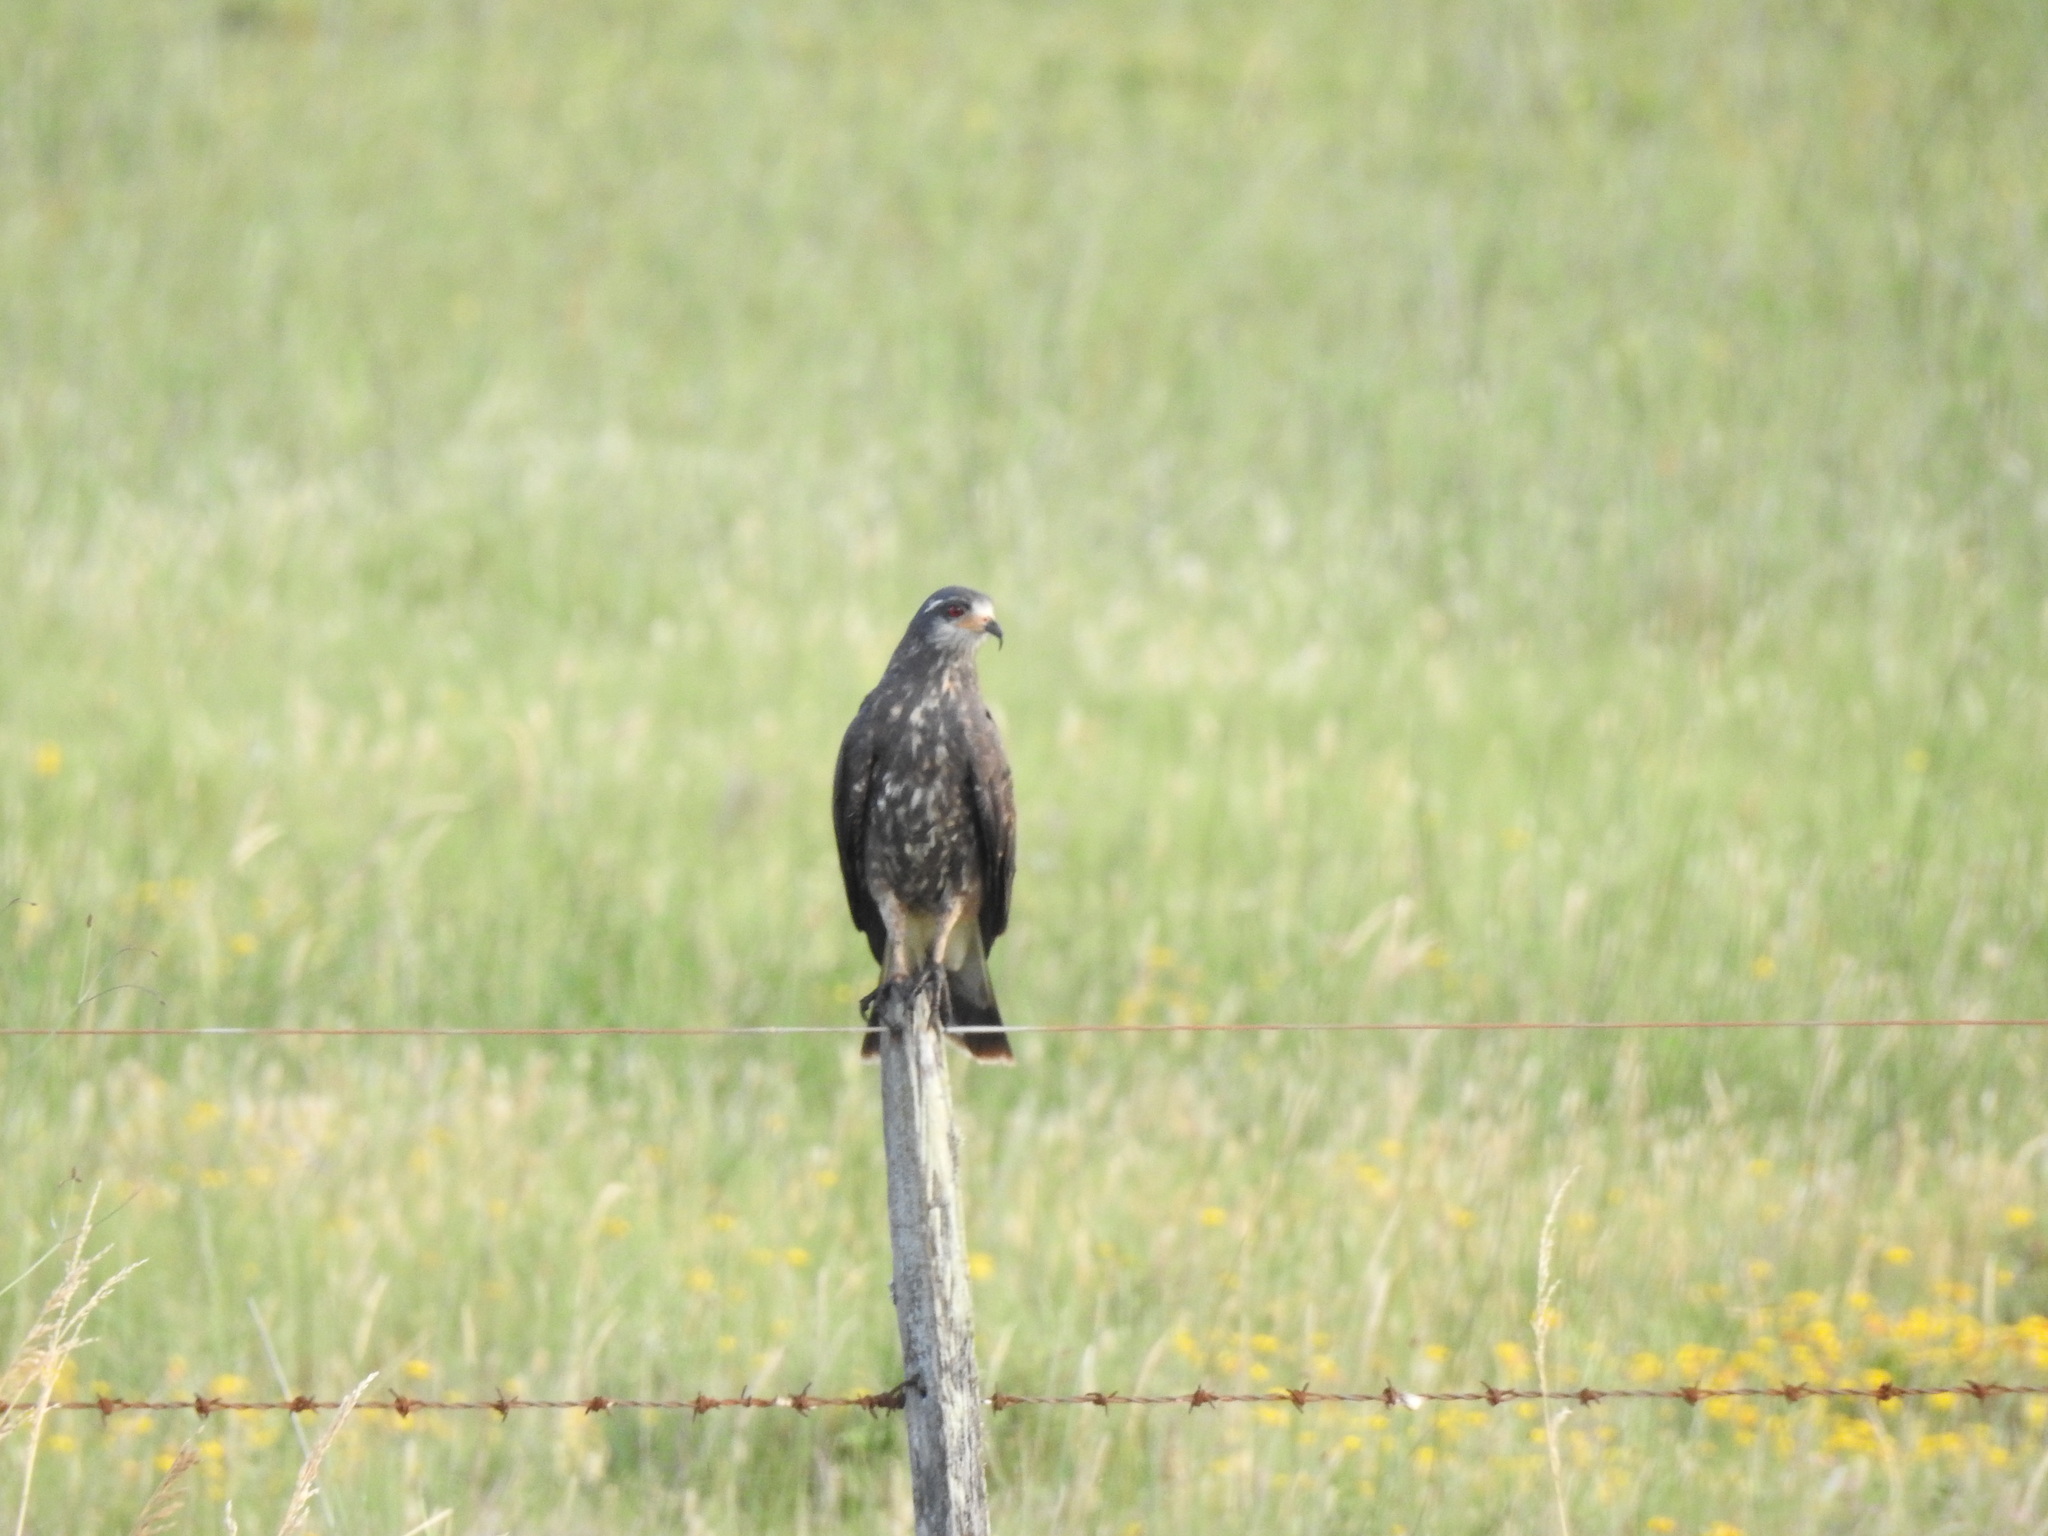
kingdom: Animalia
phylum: Chordata
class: Aves
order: Accipitriformes
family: Accipitridae
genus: Rostrhamus
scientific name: Rostrhamus sociabilis
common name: Snail kite
